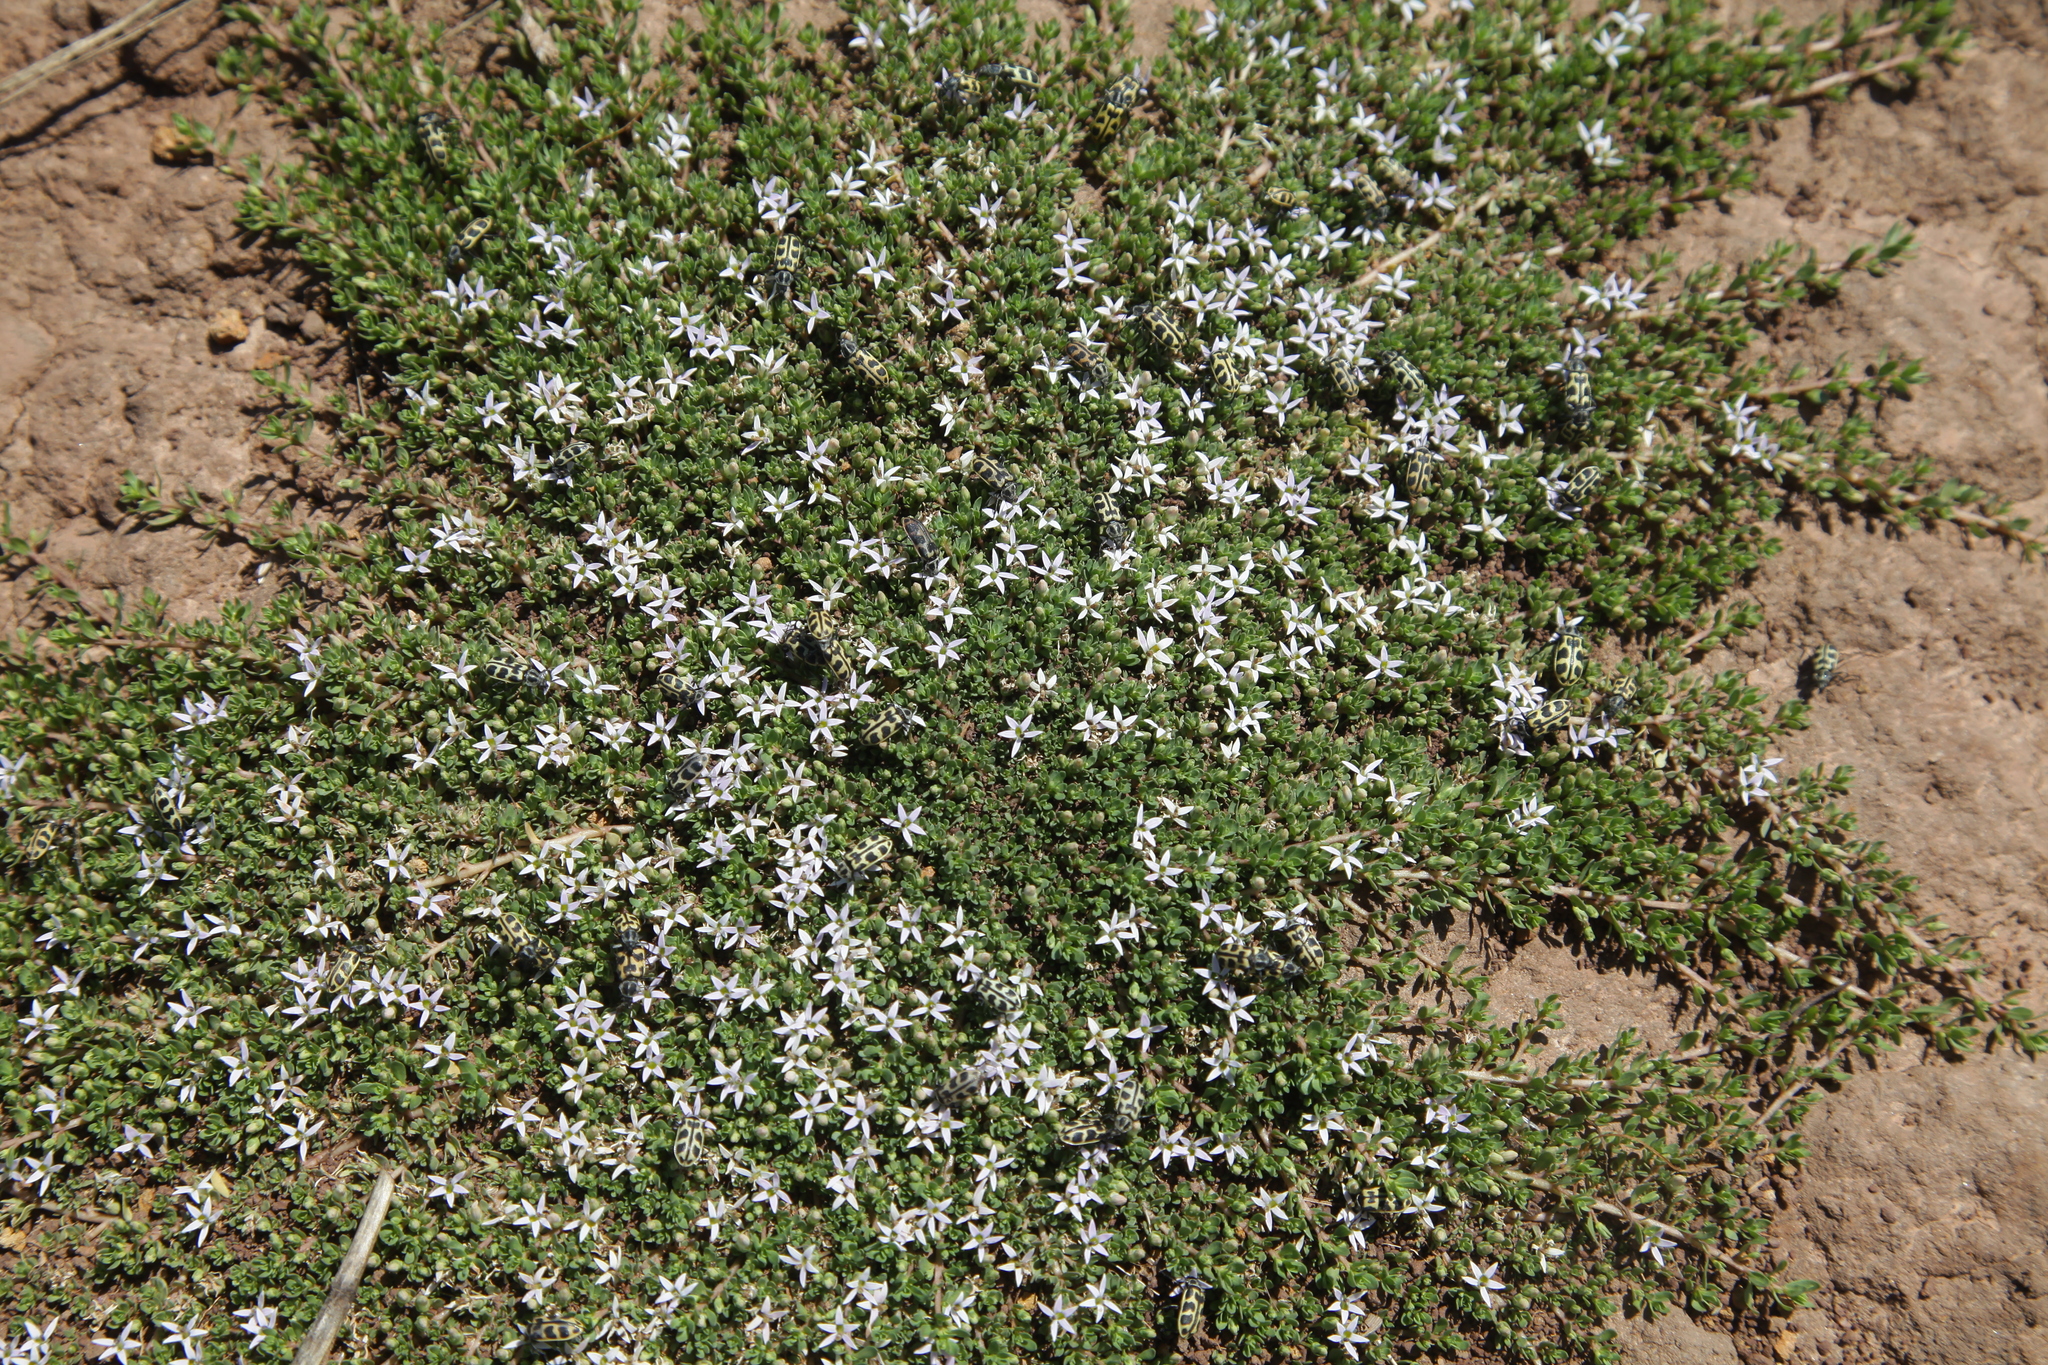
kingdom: Plantae
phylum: Tracheophyta
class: Magnoliopsida
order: Asterales
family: Campanulaceae
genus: Lobelia
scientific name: Lobelia sonderiana
